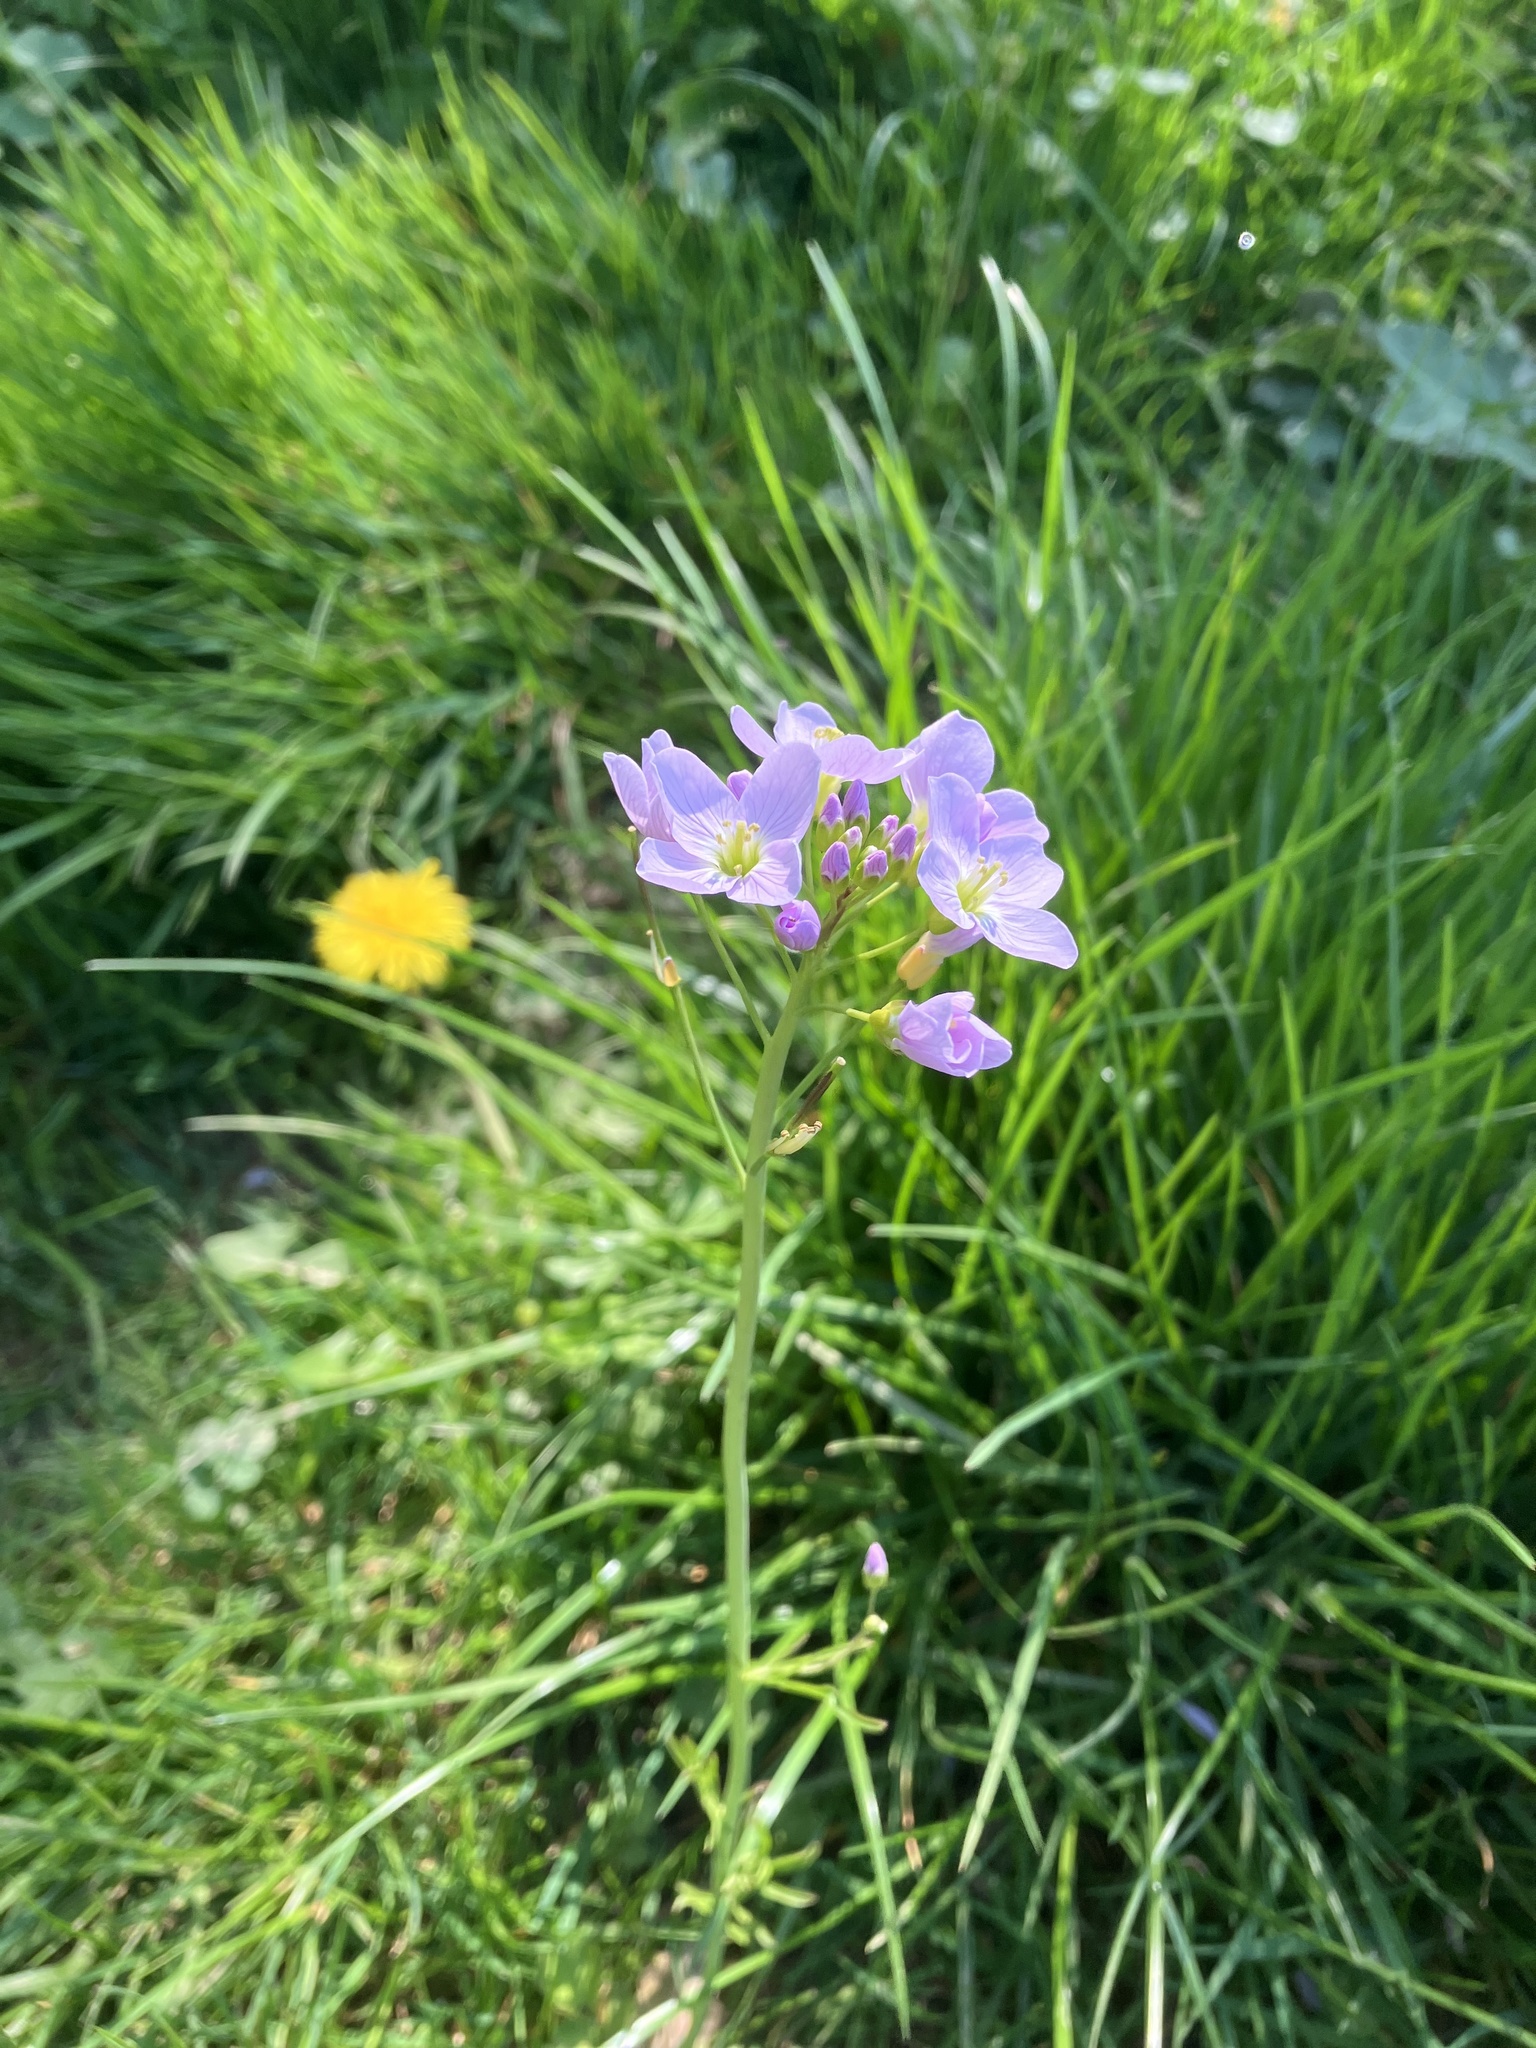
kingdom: Plantae
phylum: Tracheophyta
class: Magnoliopsida
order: Brassicales
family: Brassicaceae
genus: Cardamine
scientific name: Cardamine pratensis
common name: Cuckoo flower
